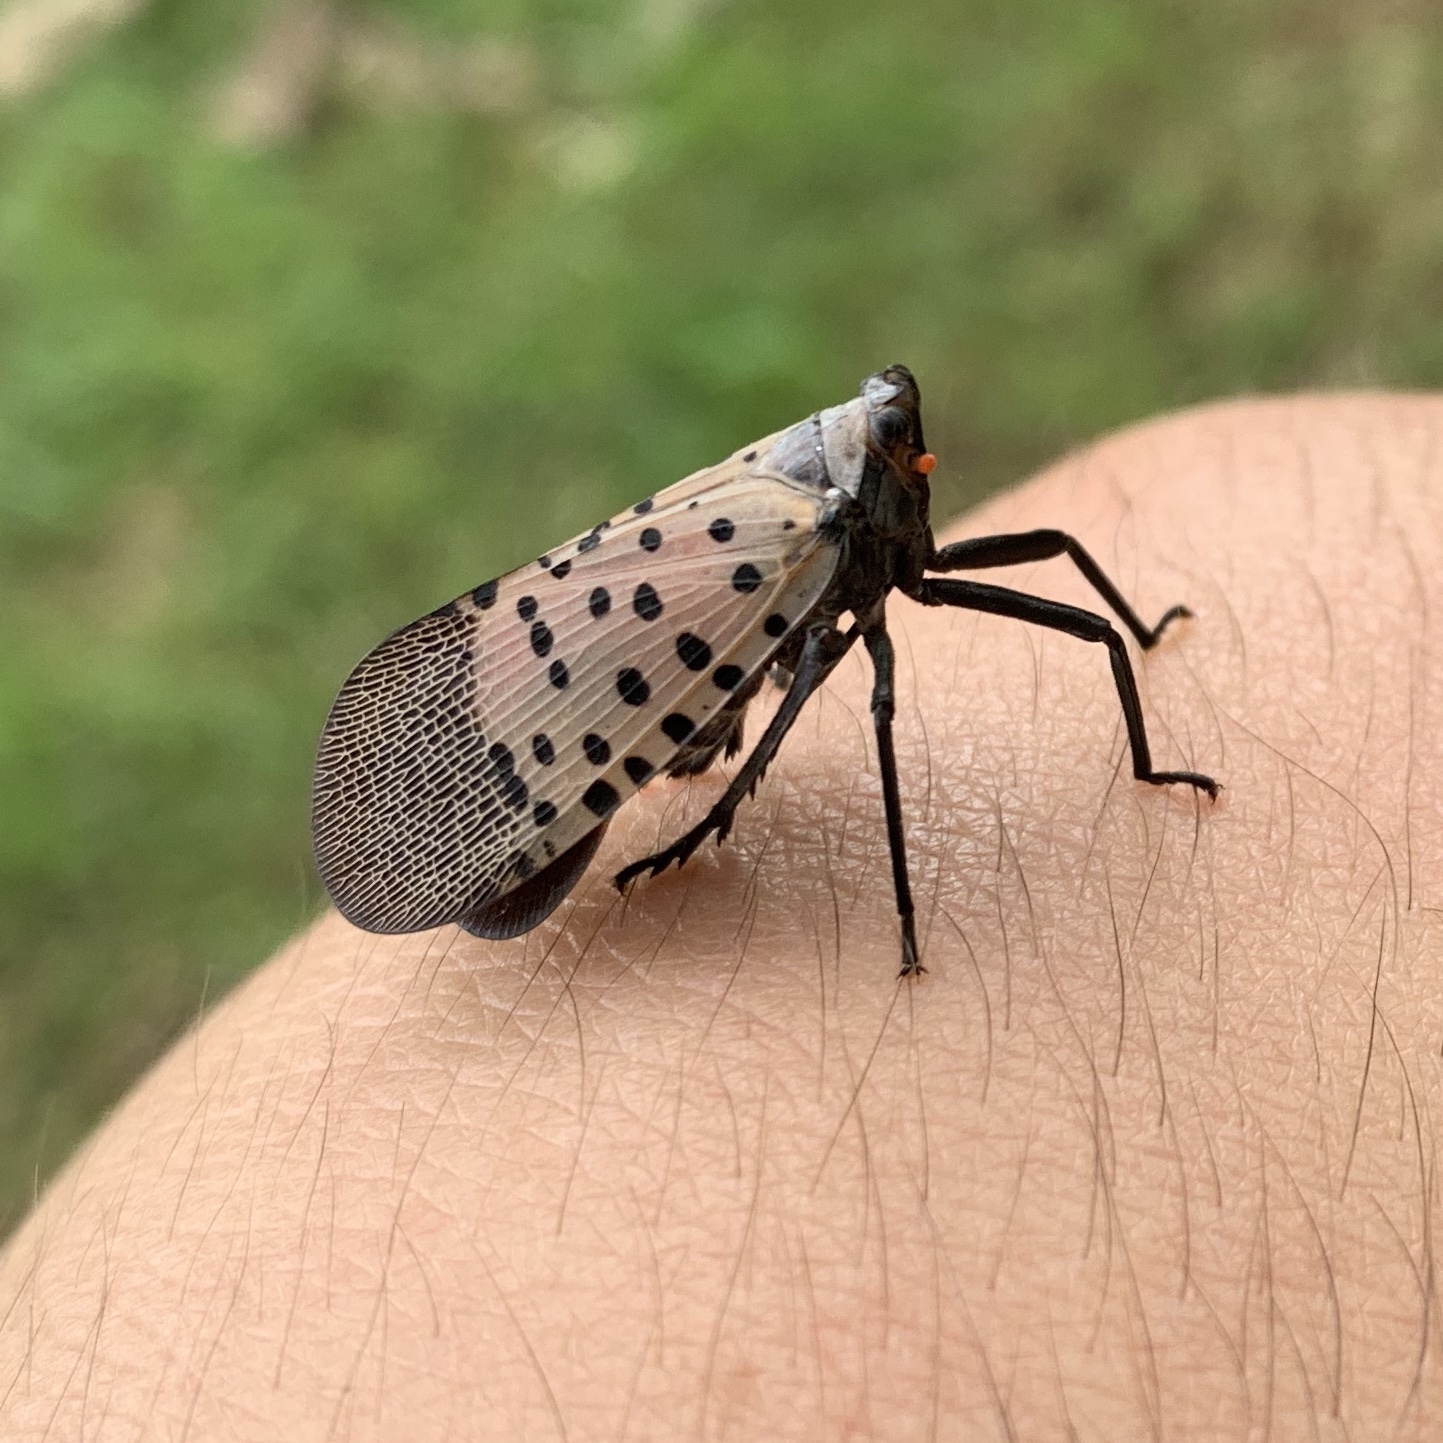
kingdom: Animalia
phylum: Arthropoda
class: Insecta
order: Hemiptera
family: Fulgoridae
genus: Lycorma
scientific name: Lycorma delicatula
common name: Spotted lanternfly
